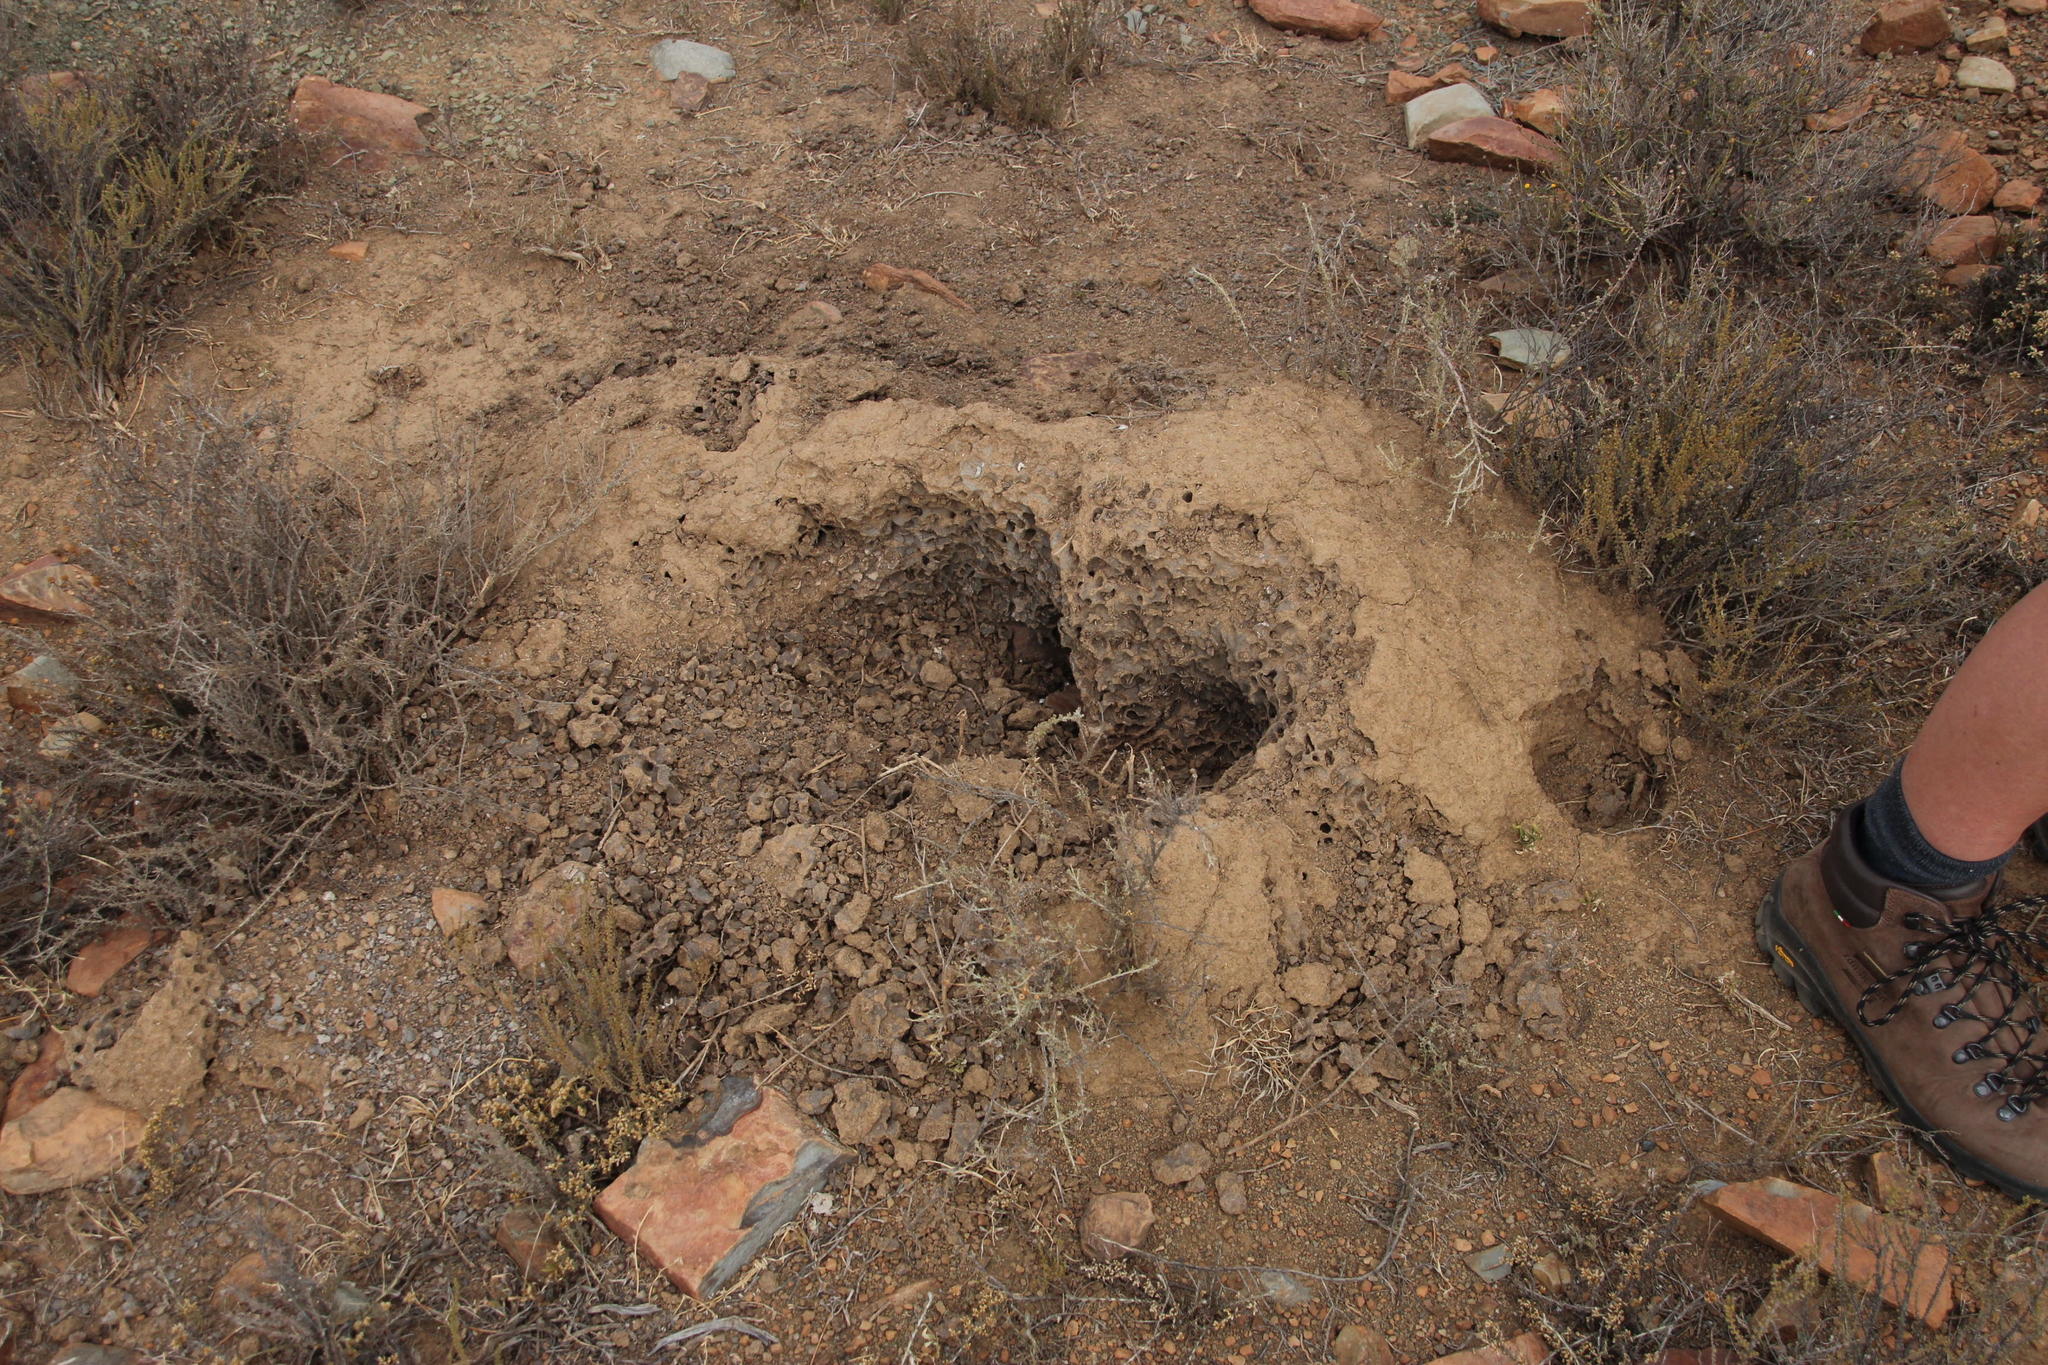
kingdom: Animalia
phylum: Chordata
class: Mammalia
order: Tubulidentata
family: Orycteropodidae
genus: Orycteropus
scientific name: Orycteropus afer
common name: Aardvark
